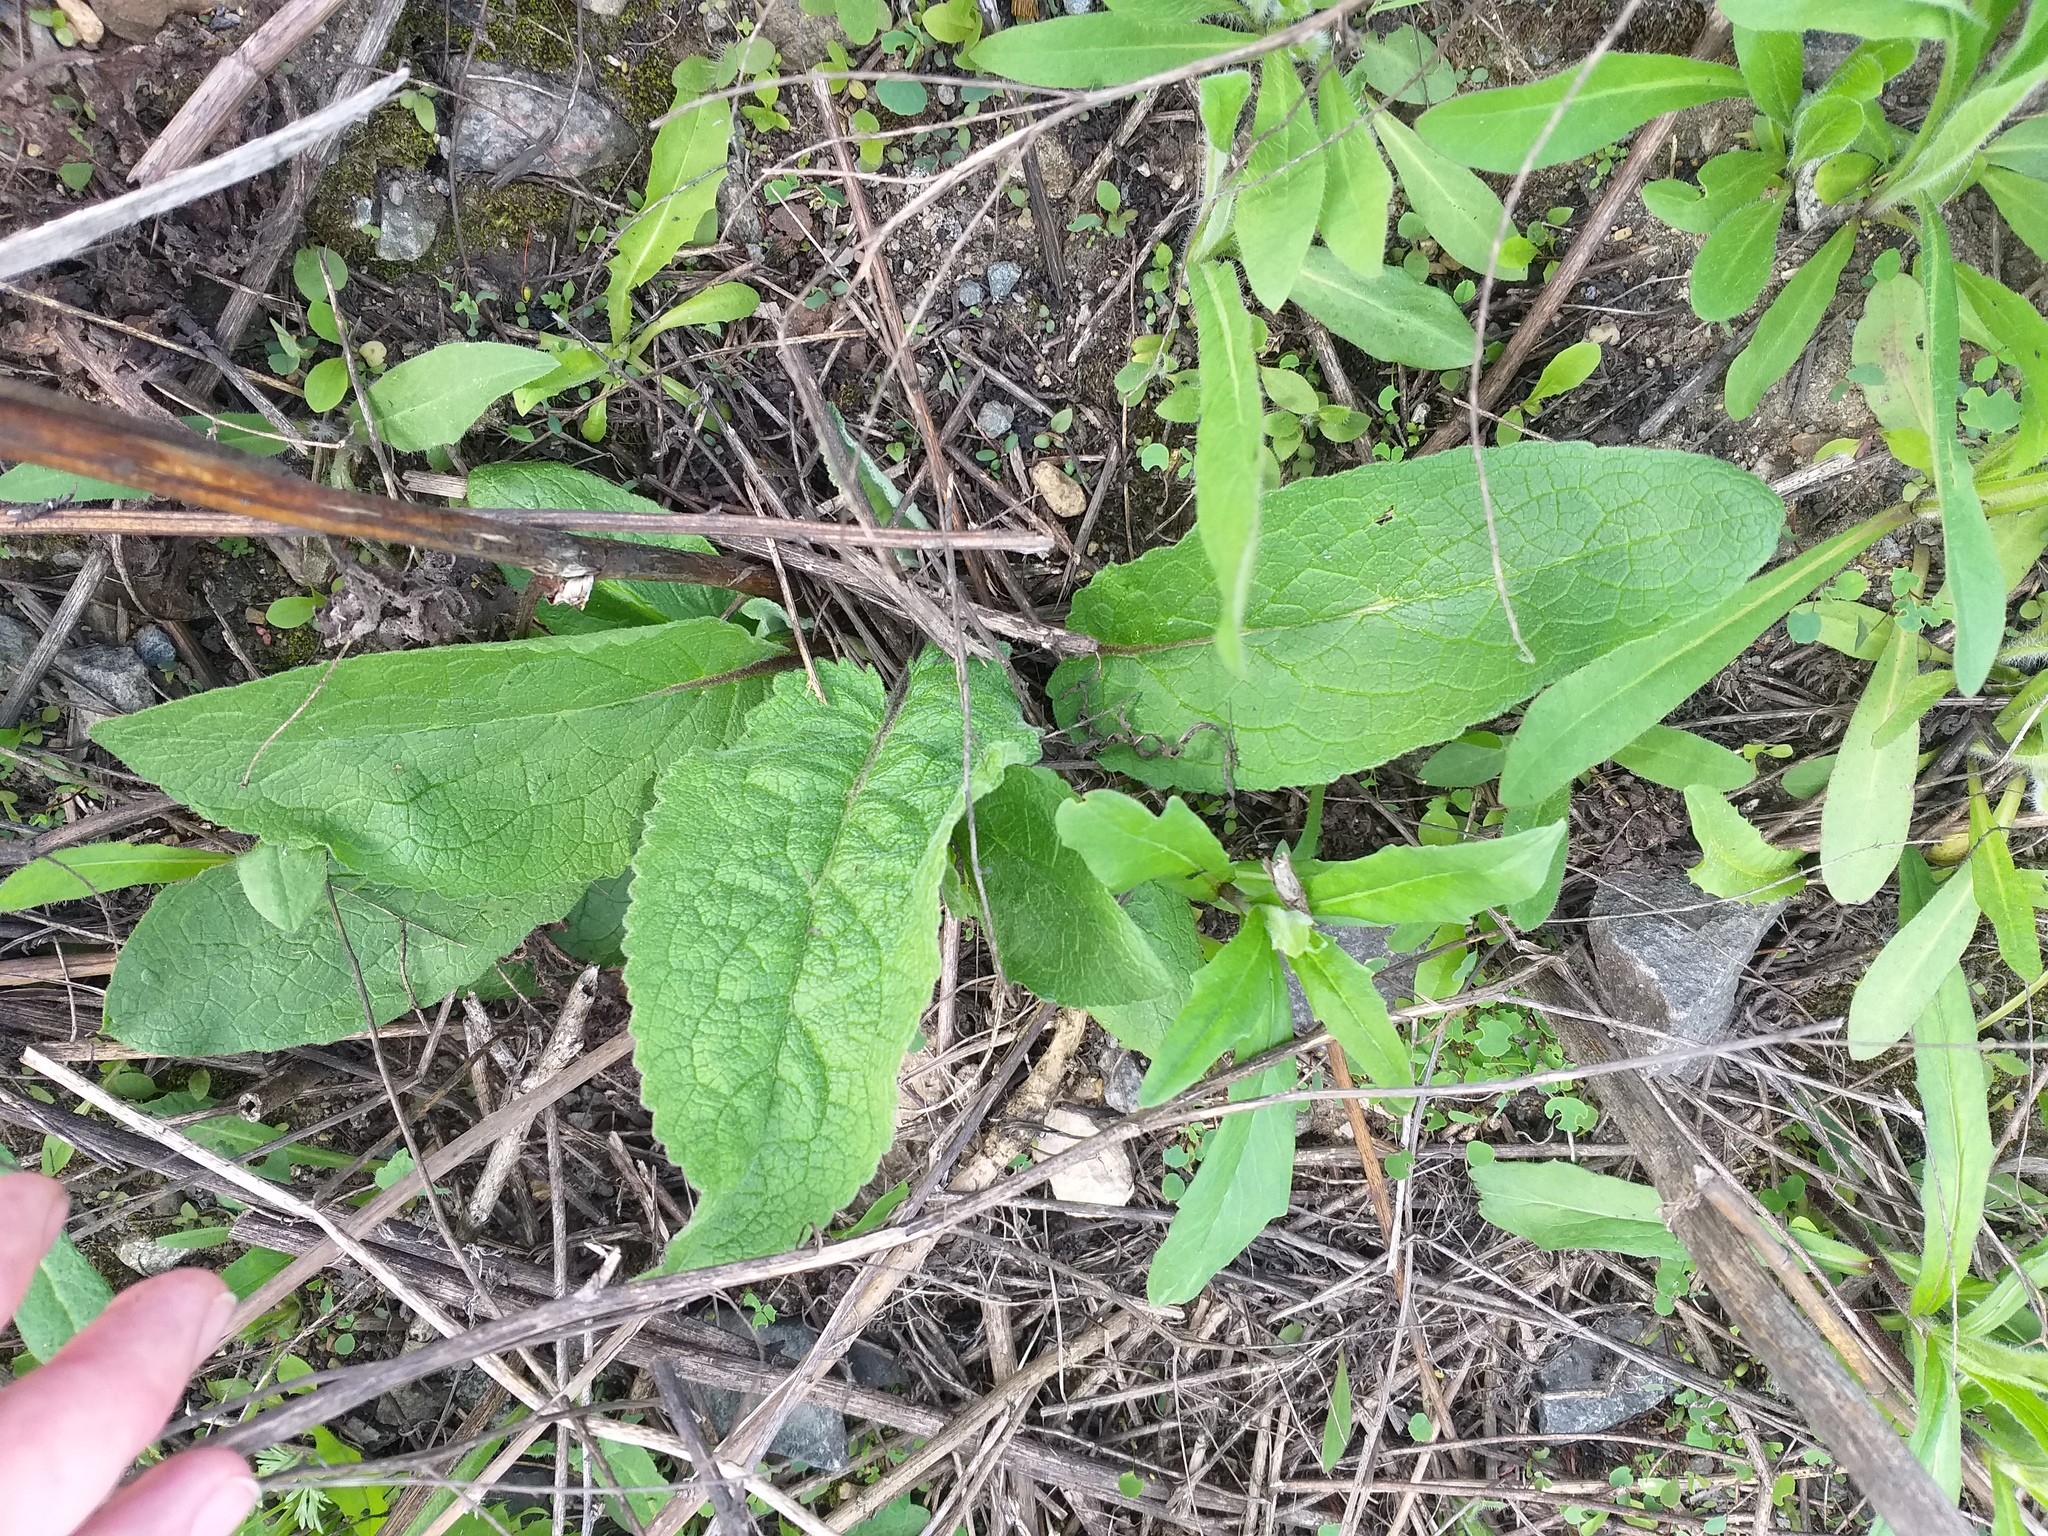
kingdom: Plantae
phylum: Tracheophyta
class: Magnoliopsida
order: Lamiales
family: Scrophulariaceae
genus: Verbascum
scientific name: Verbascum nigrum
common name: Dark mullein
